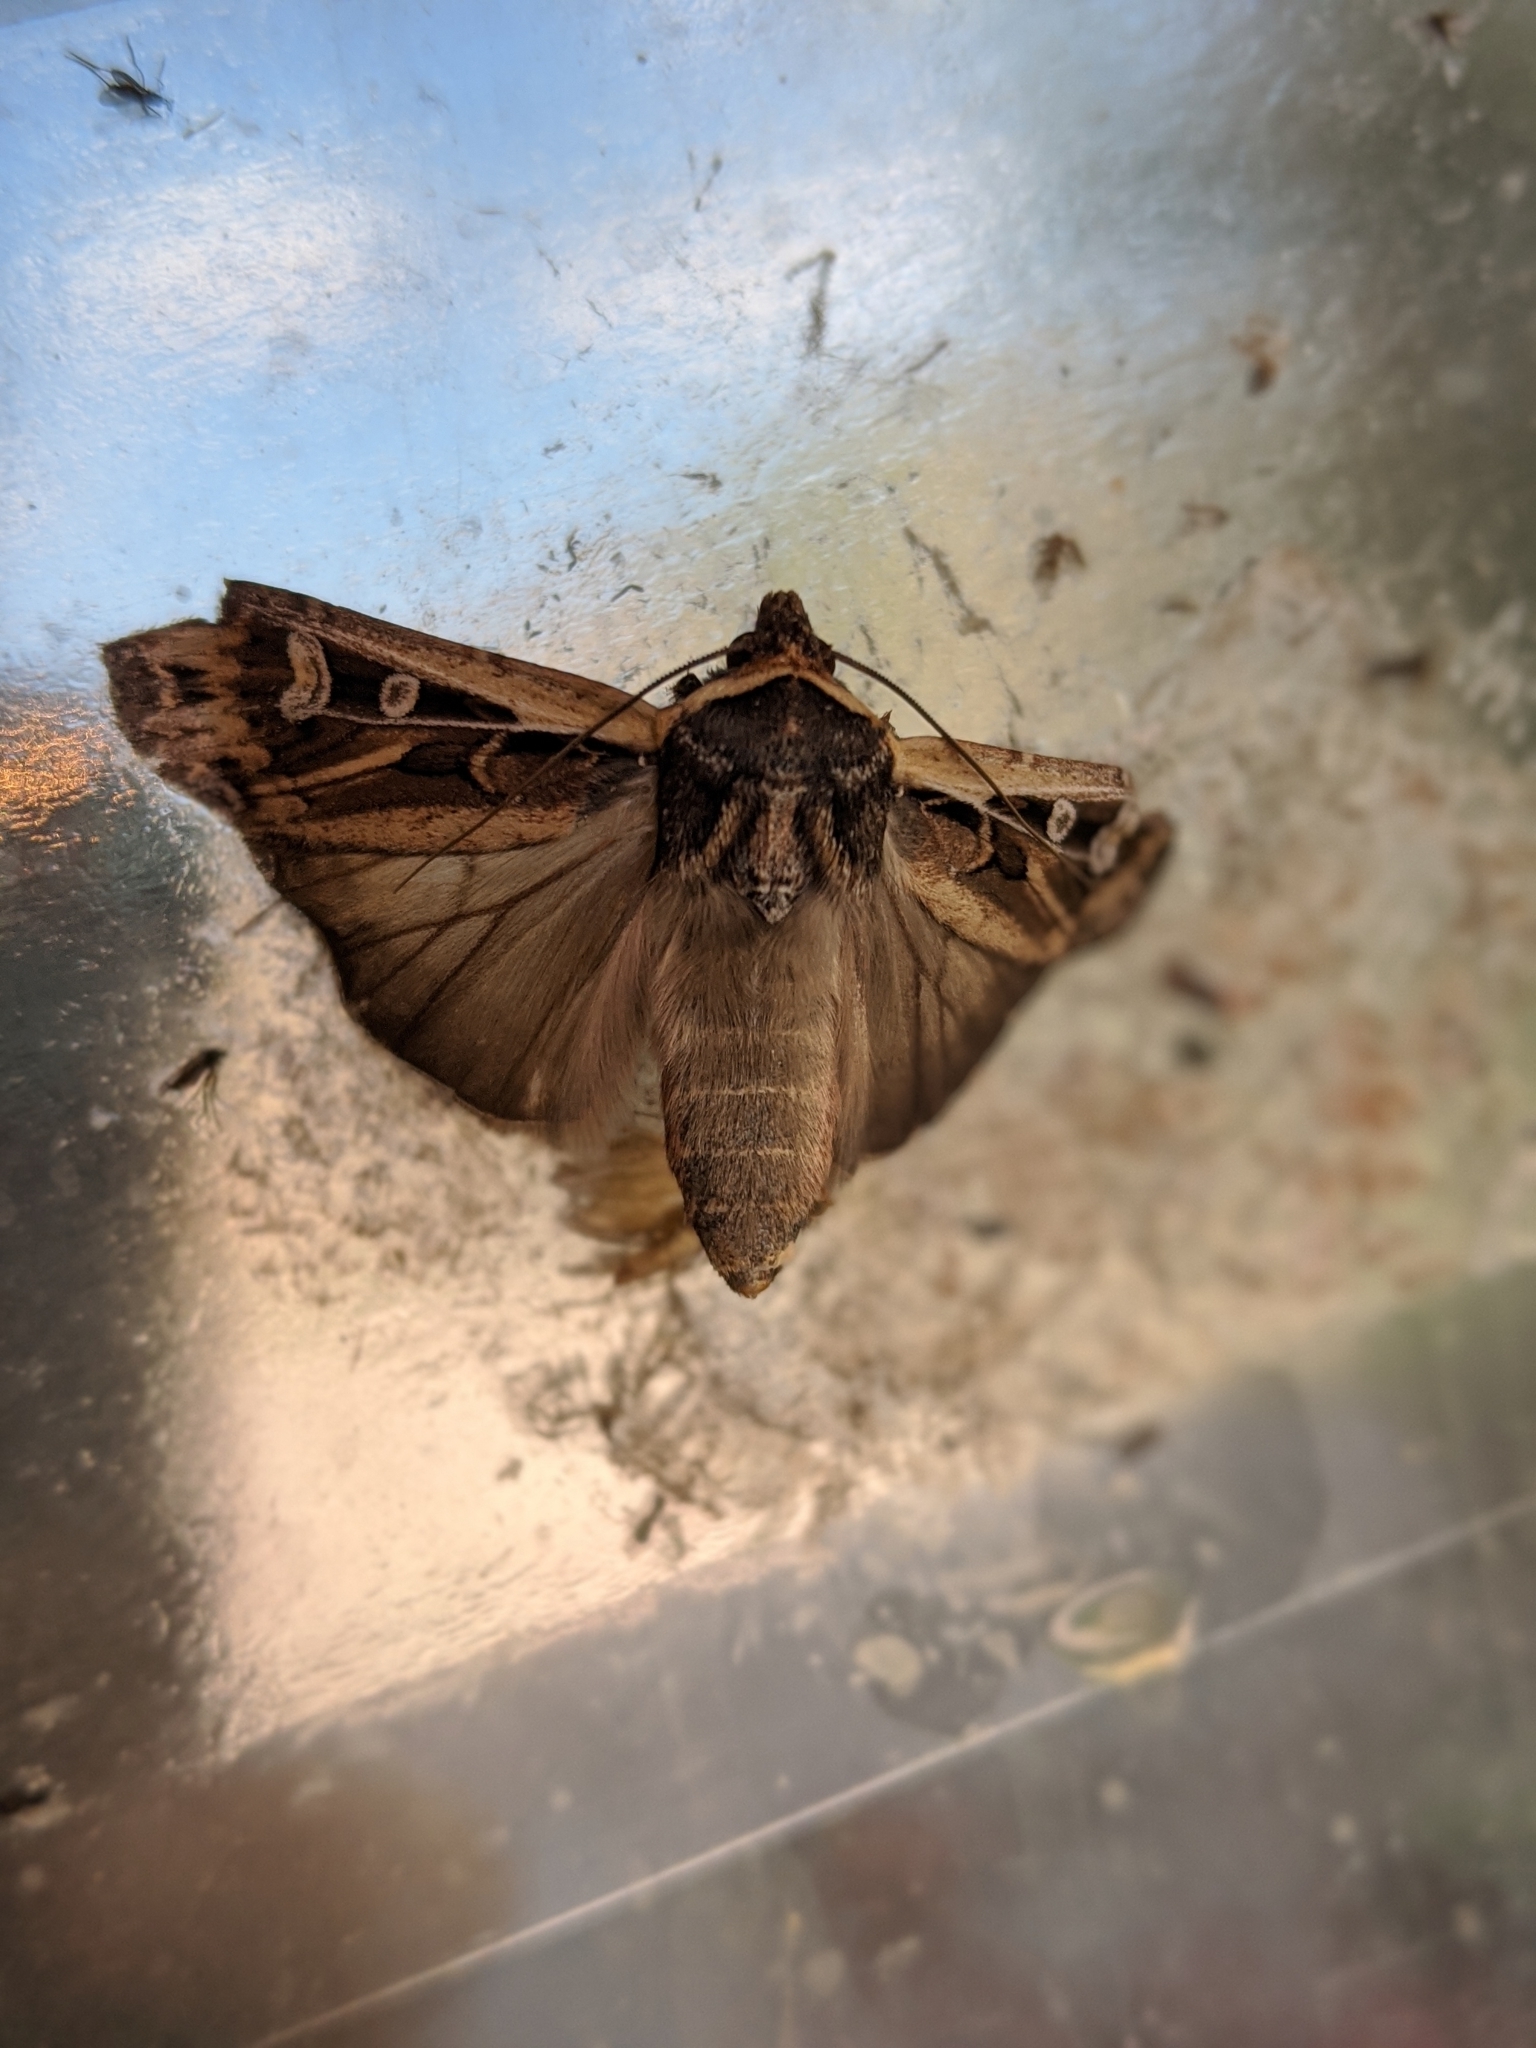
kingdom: Animalia
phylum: Arthropoda
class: Insecta
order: Lepidoptera
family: Noctuidae
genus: Euxoa
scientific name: Euxoa auxiliaris
